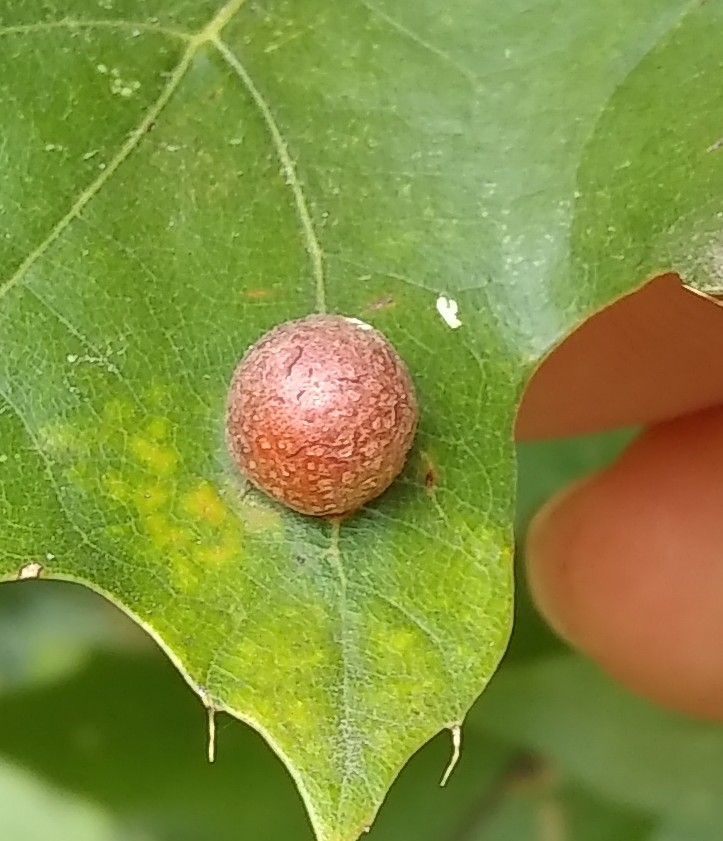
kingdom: Animalia
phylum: Arthropoda
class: Insecta
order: Diptera
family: Cecidomyiidae
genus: Polystepha
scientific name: Polystepha pilulae
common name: Oak leaf gall midge
